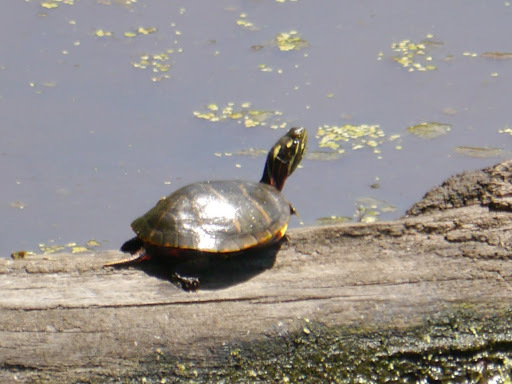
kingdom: Animalia
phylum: Chordata
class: Testudines
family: Emydidae
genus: Chrysemys
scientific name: Chrysemys picta
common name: Painted turtle
